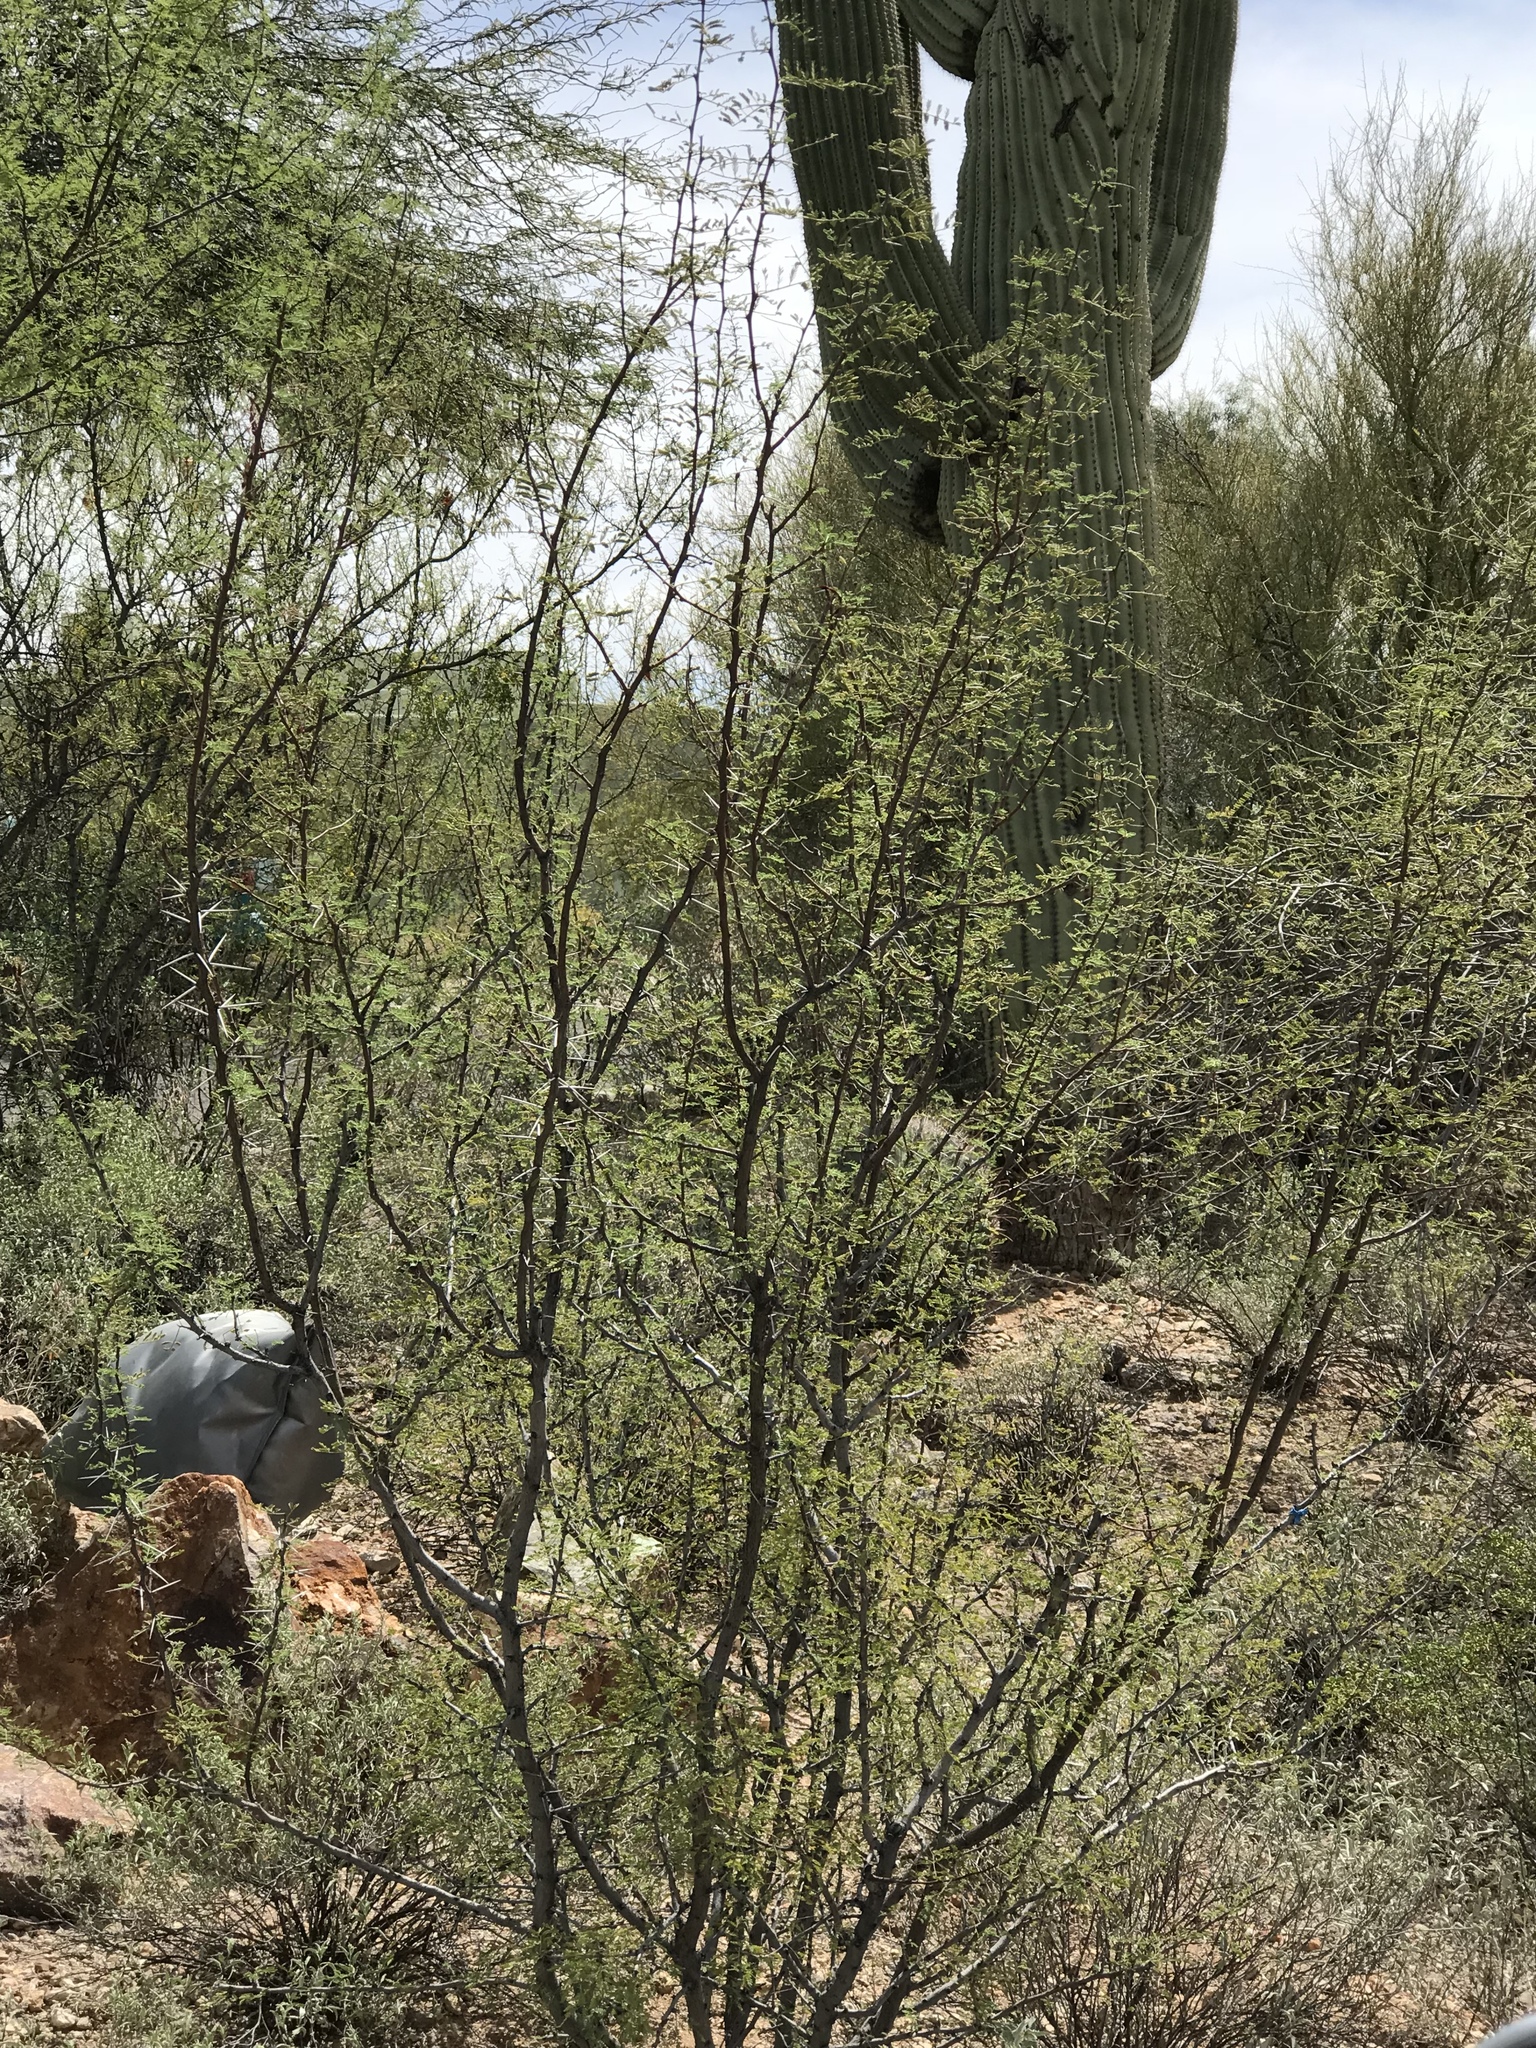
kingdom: Plantae
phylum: Tracheophyta
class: Magnoliopsida
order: Fabales
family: Fabaceae
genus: Vachellia
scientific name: Vachellia constricta
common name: Mescat acacia
